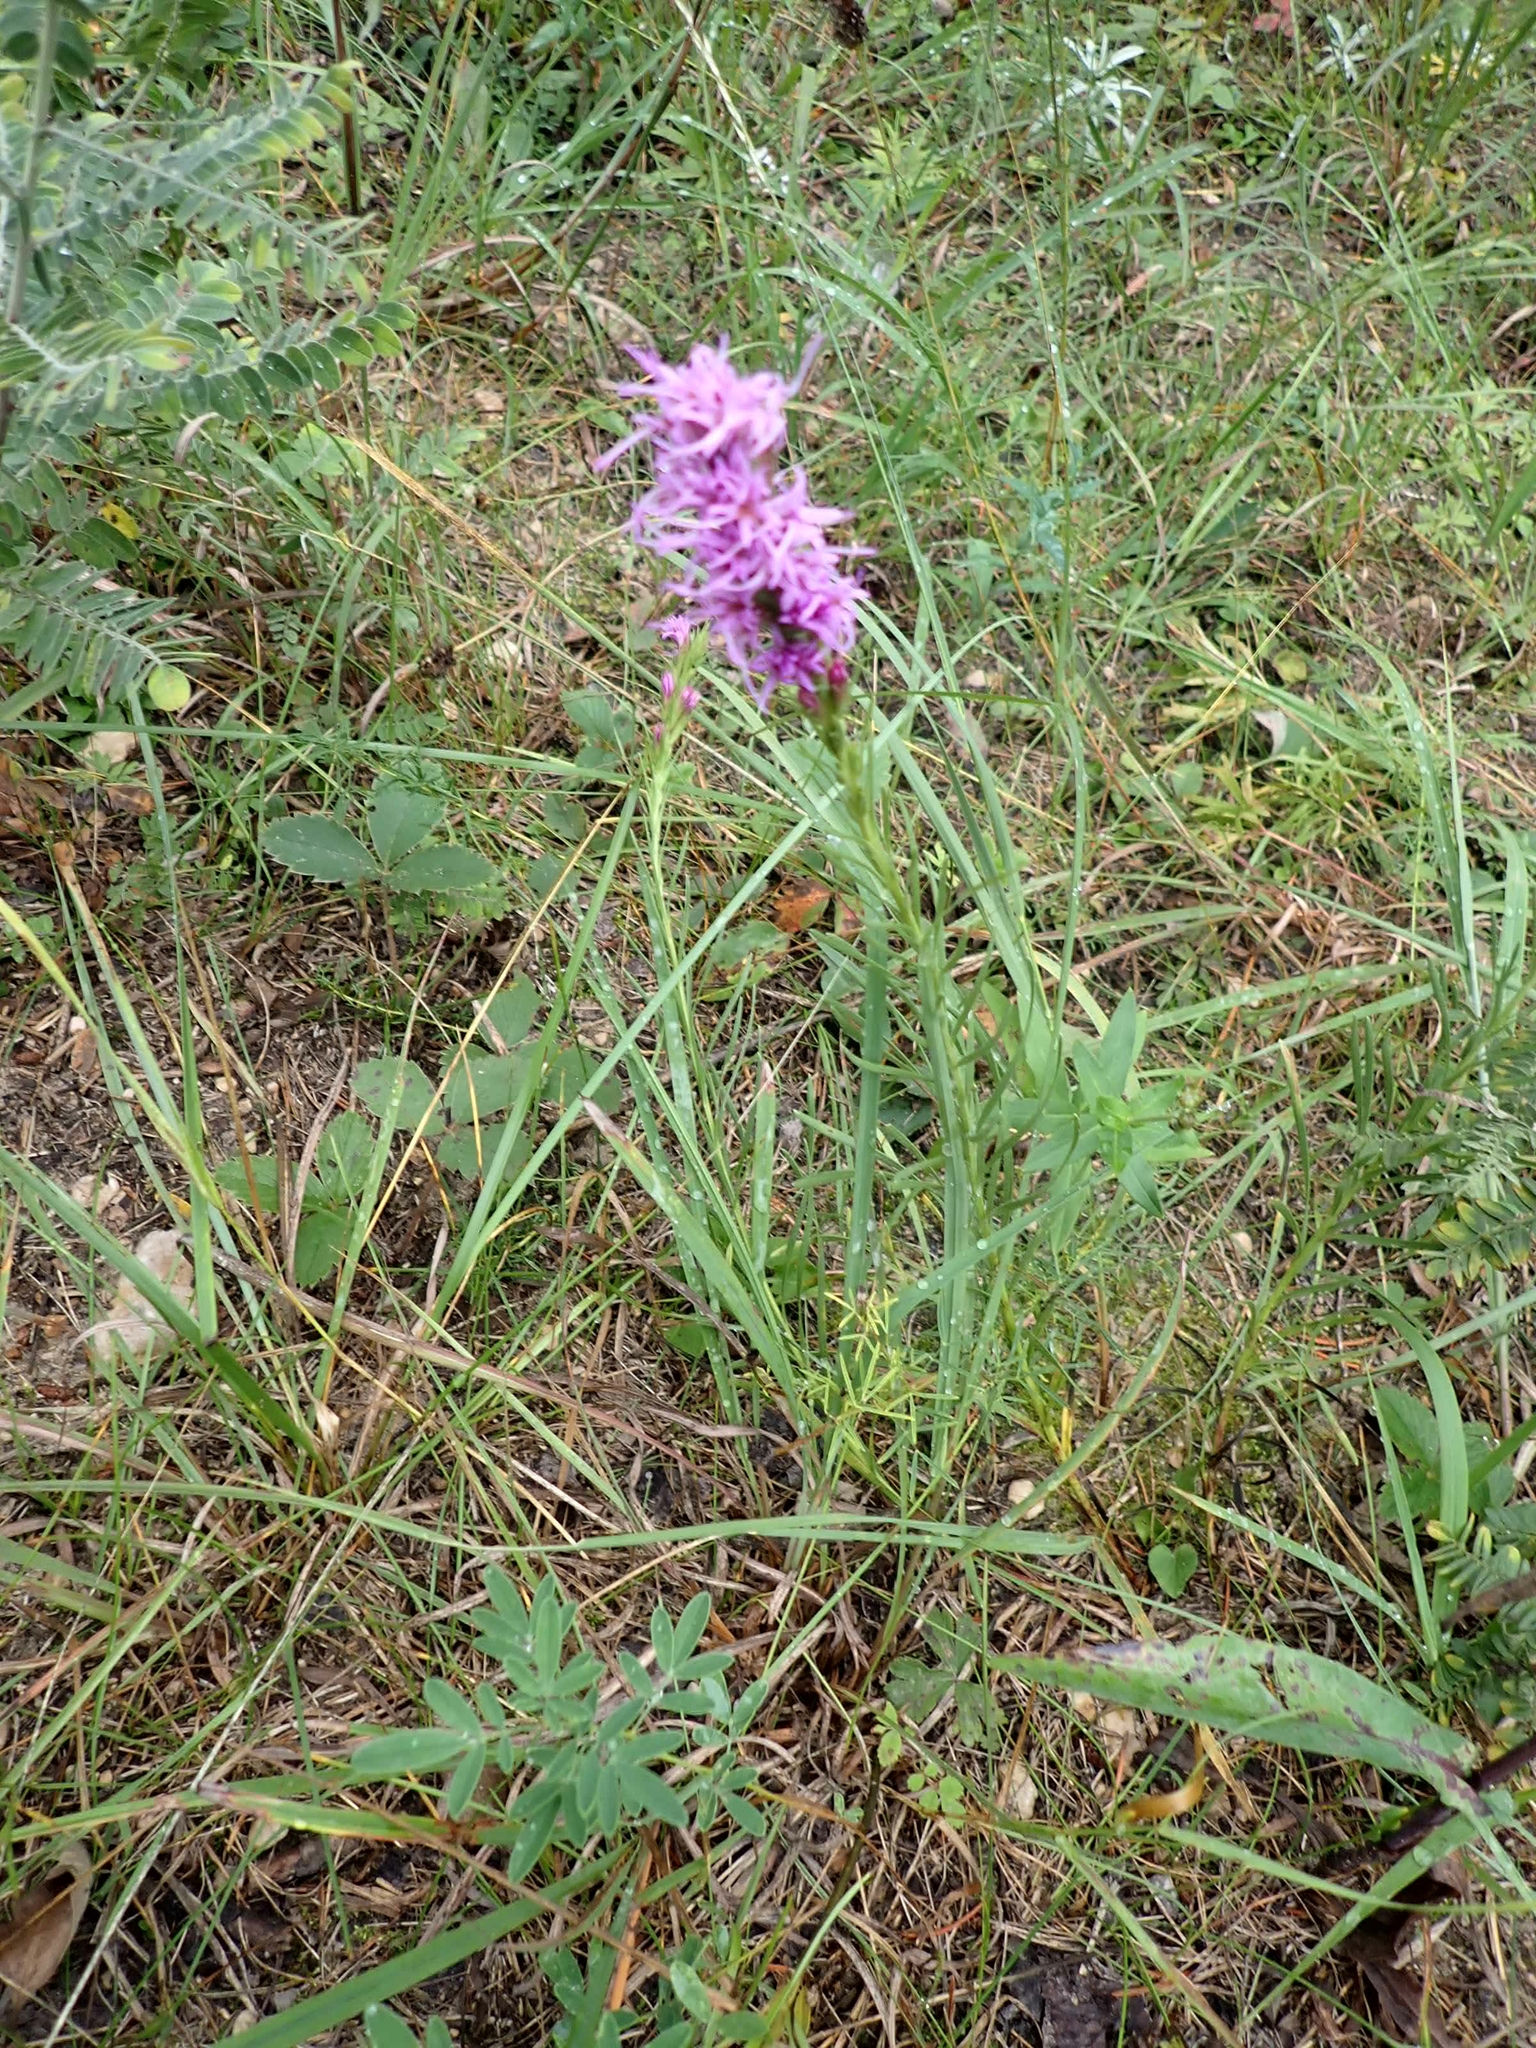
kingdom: Plantae
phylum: Tracheophyta
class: Magnoliopsida
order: Asterales
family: Asteraceae
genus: Liatris
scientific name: Liatris punctata
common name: Dotted gayfeather
